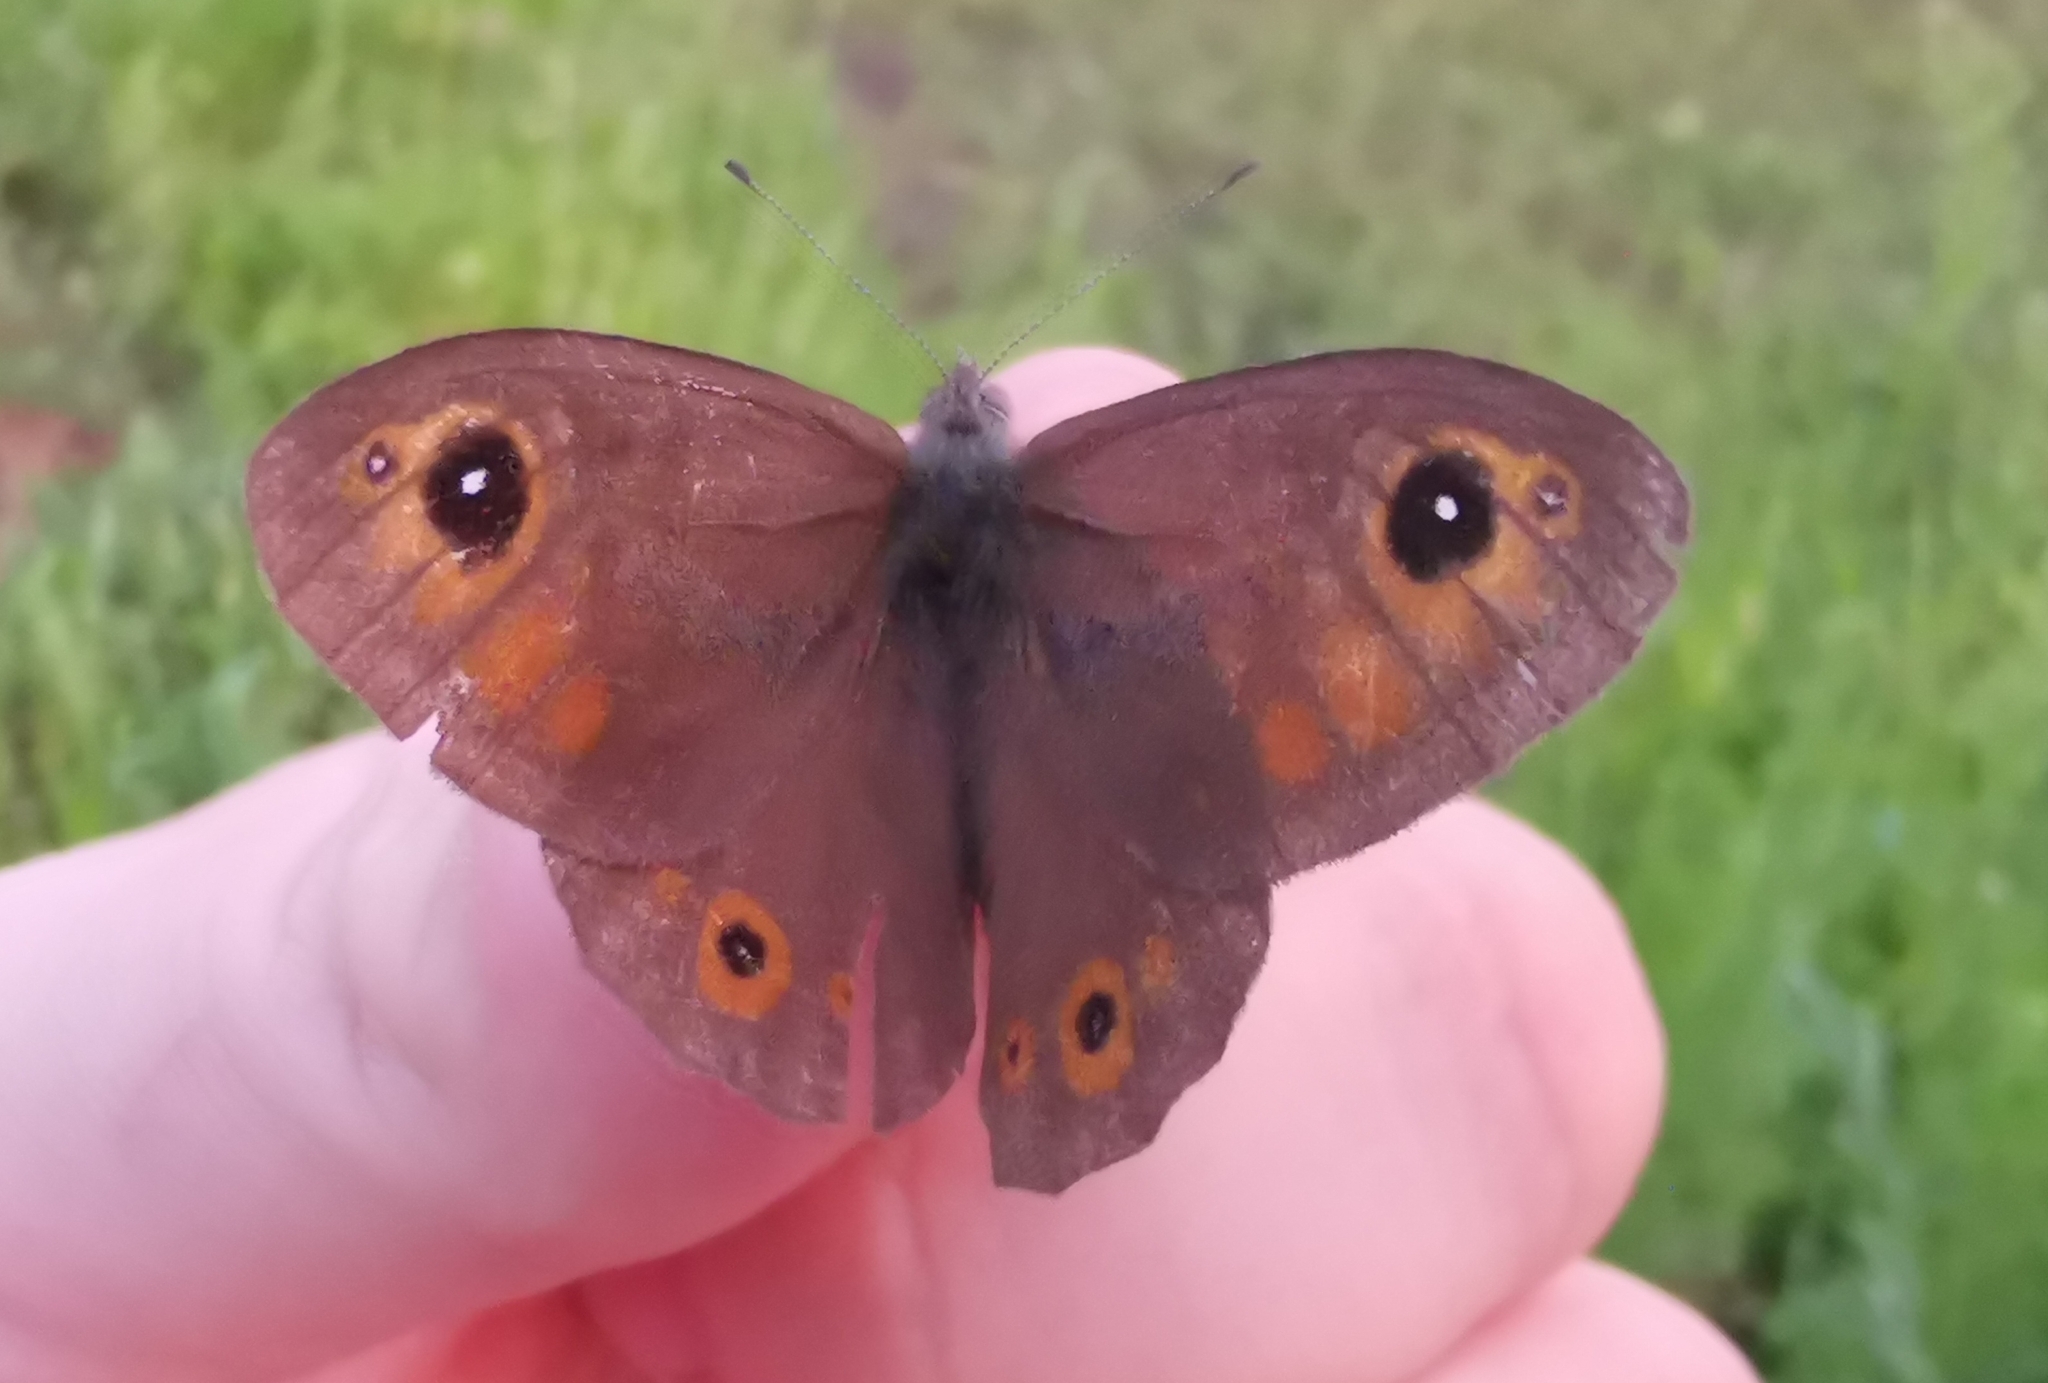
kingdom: Animalia
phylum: Arthropoda
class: Insecta
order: Lepidoptera
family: Nymphalidae
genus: Pararge
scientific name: Pararge Lasiommata maera
